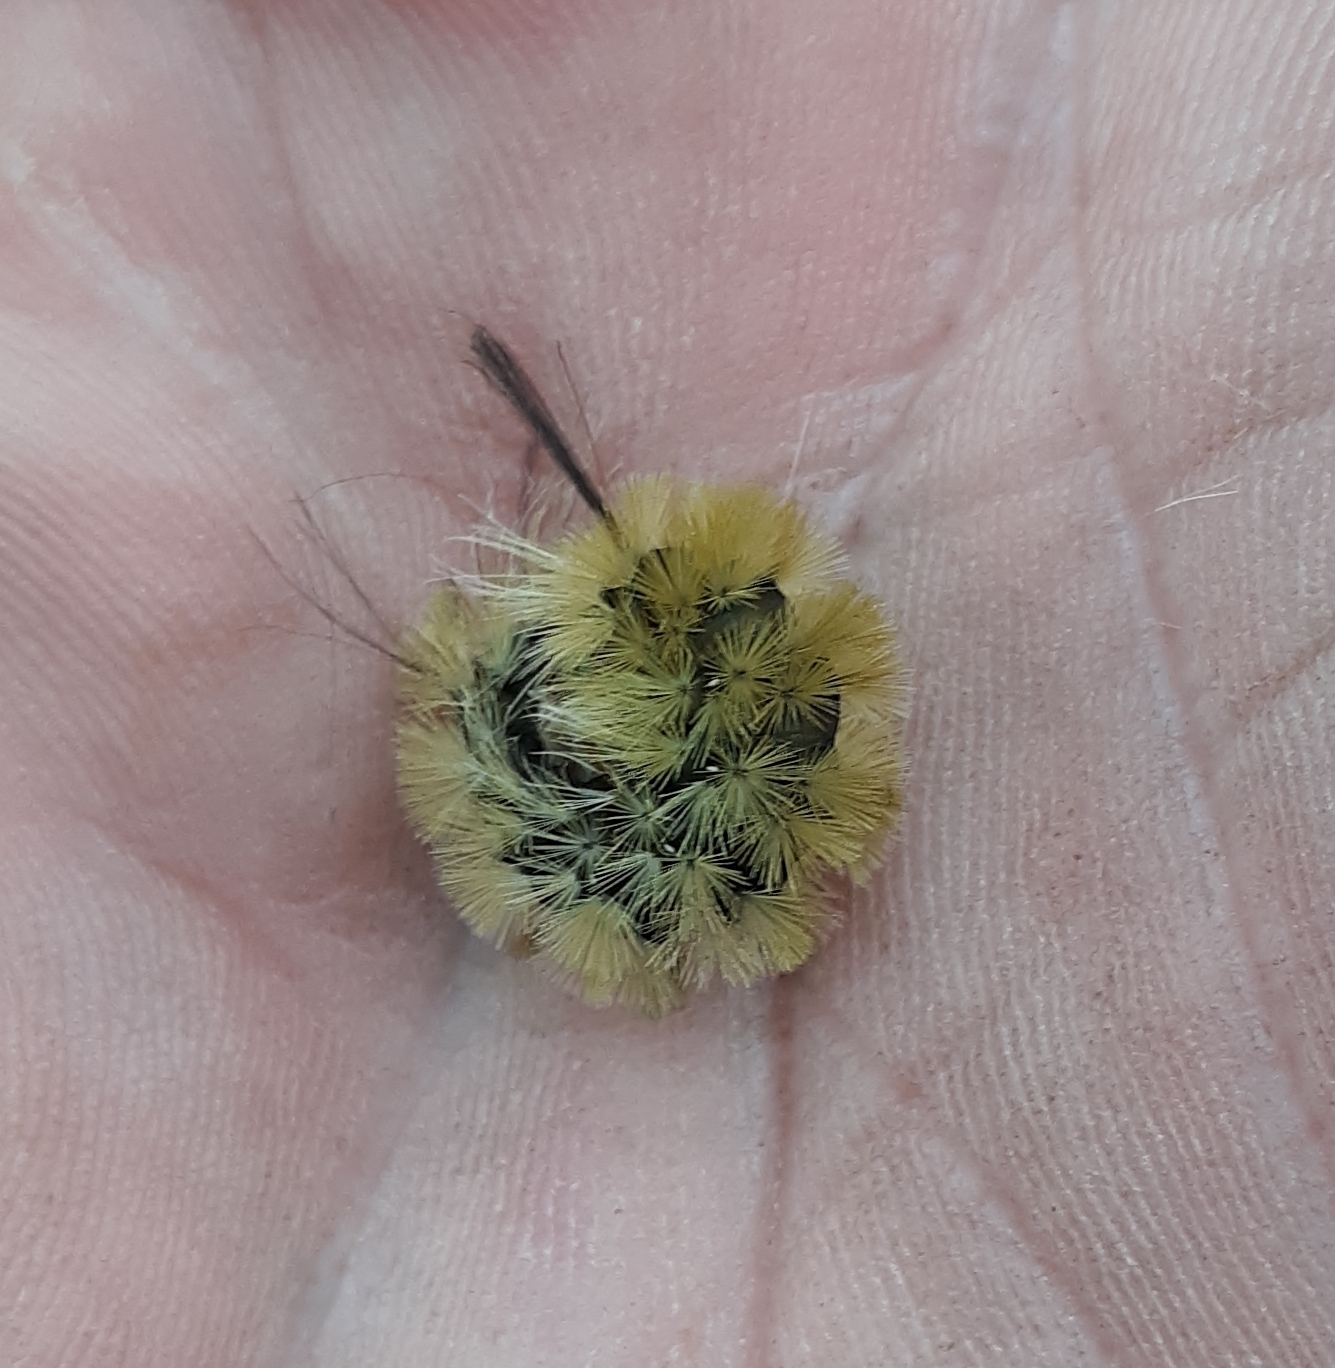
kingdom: Animalia
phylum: Arthropoda
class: Insecta
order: Lepidoptera
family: Erebidae
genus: Halysidota
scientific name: Halysidota tessellaris
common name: Banded tussock moth
